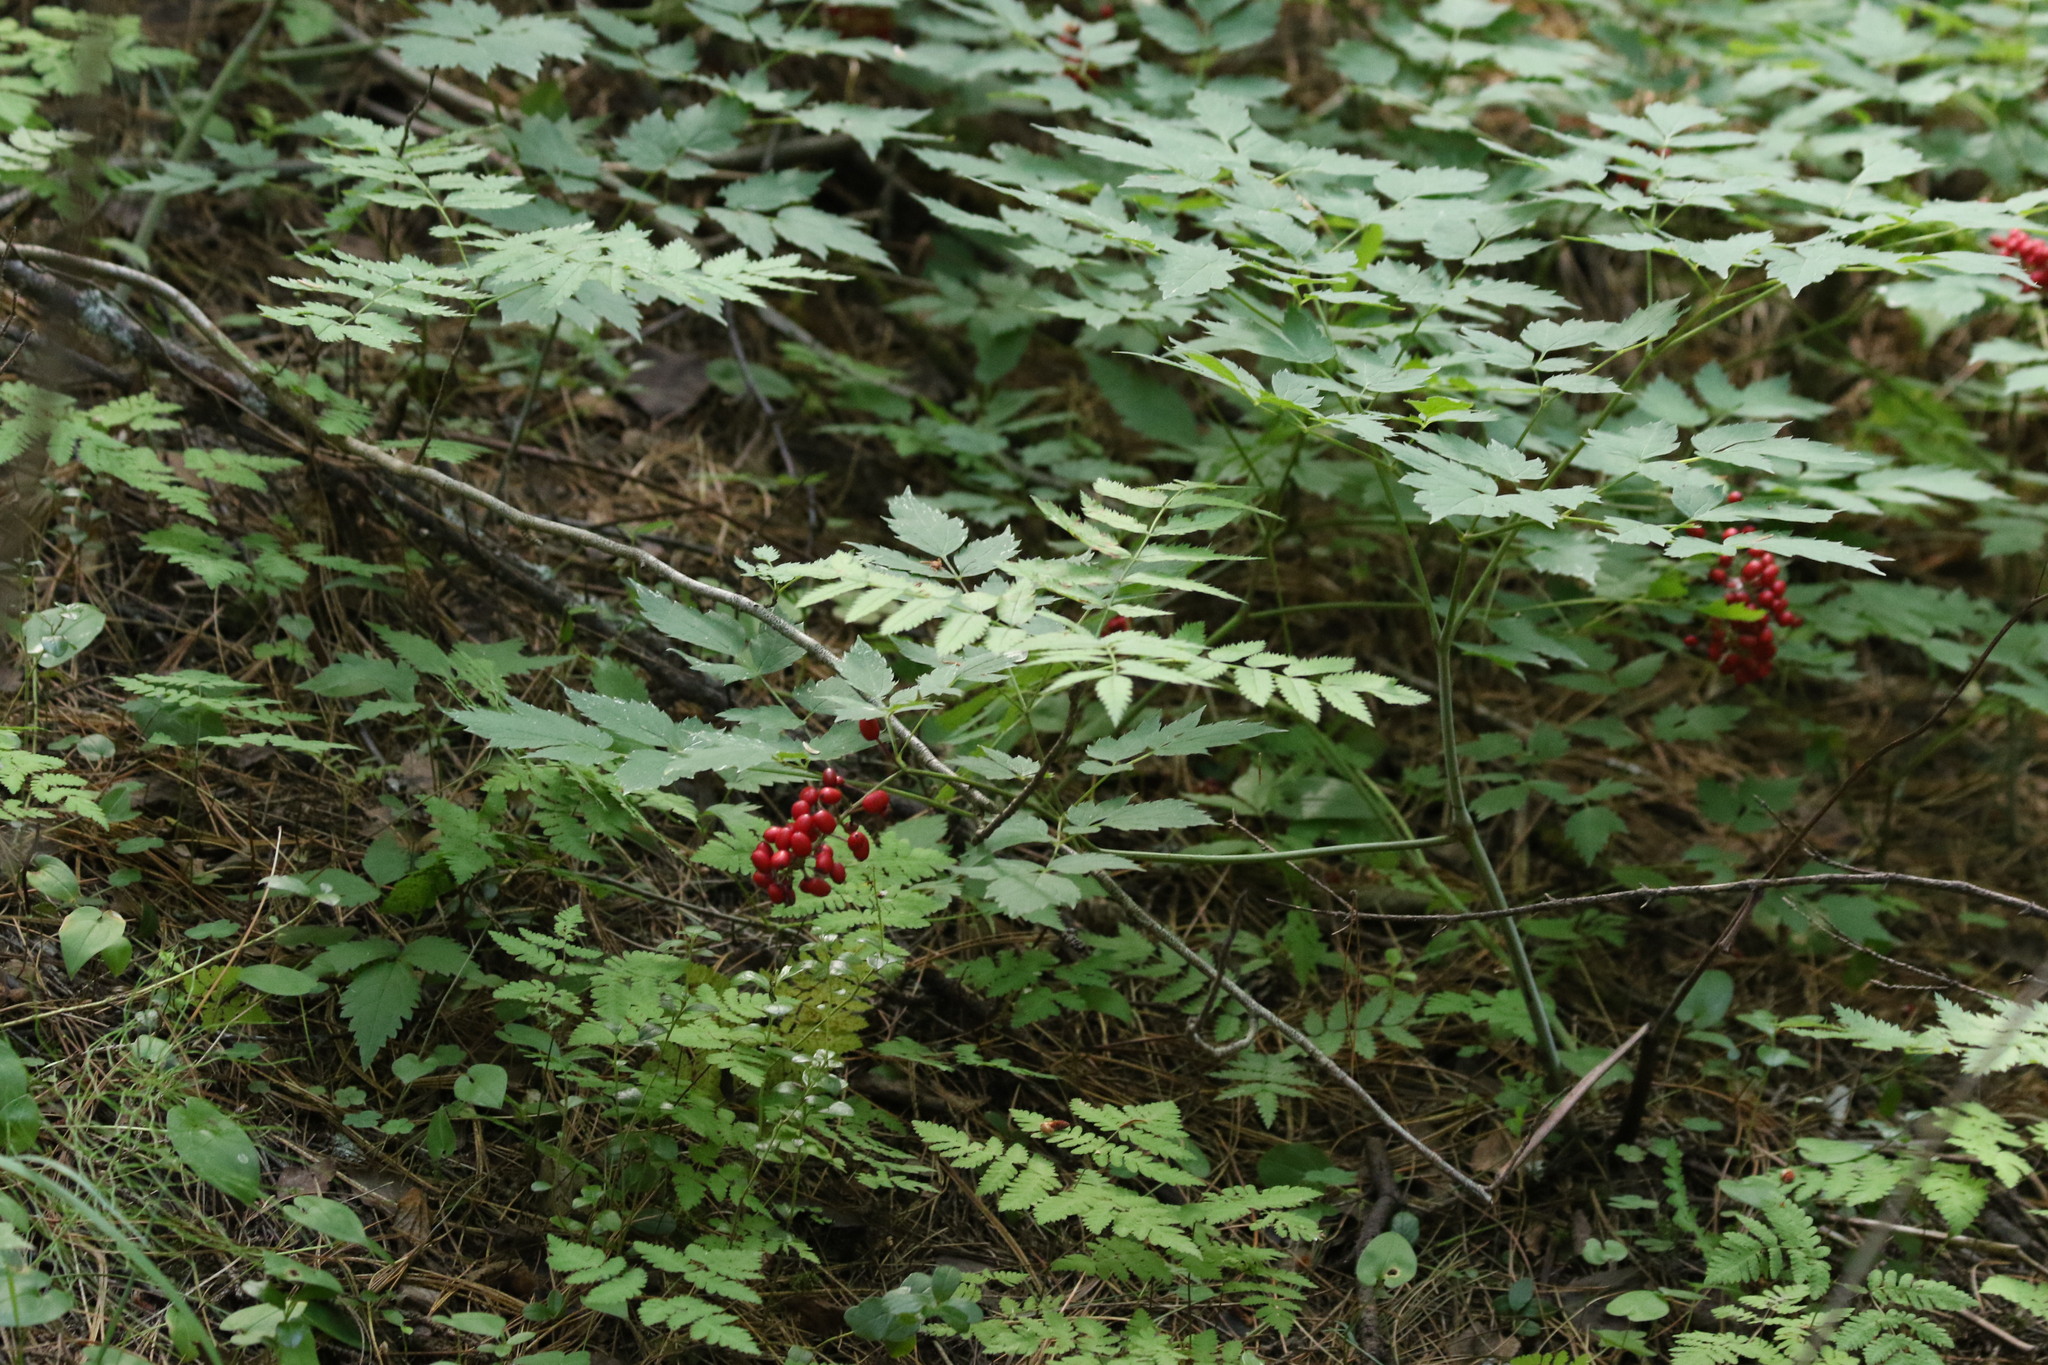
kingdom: Plantae
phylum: Tracheophyta
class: Magnoliopsida
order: Ranunculales
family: Ranunculaceae
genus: Actaea
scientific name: Actaea erythrocarpa
